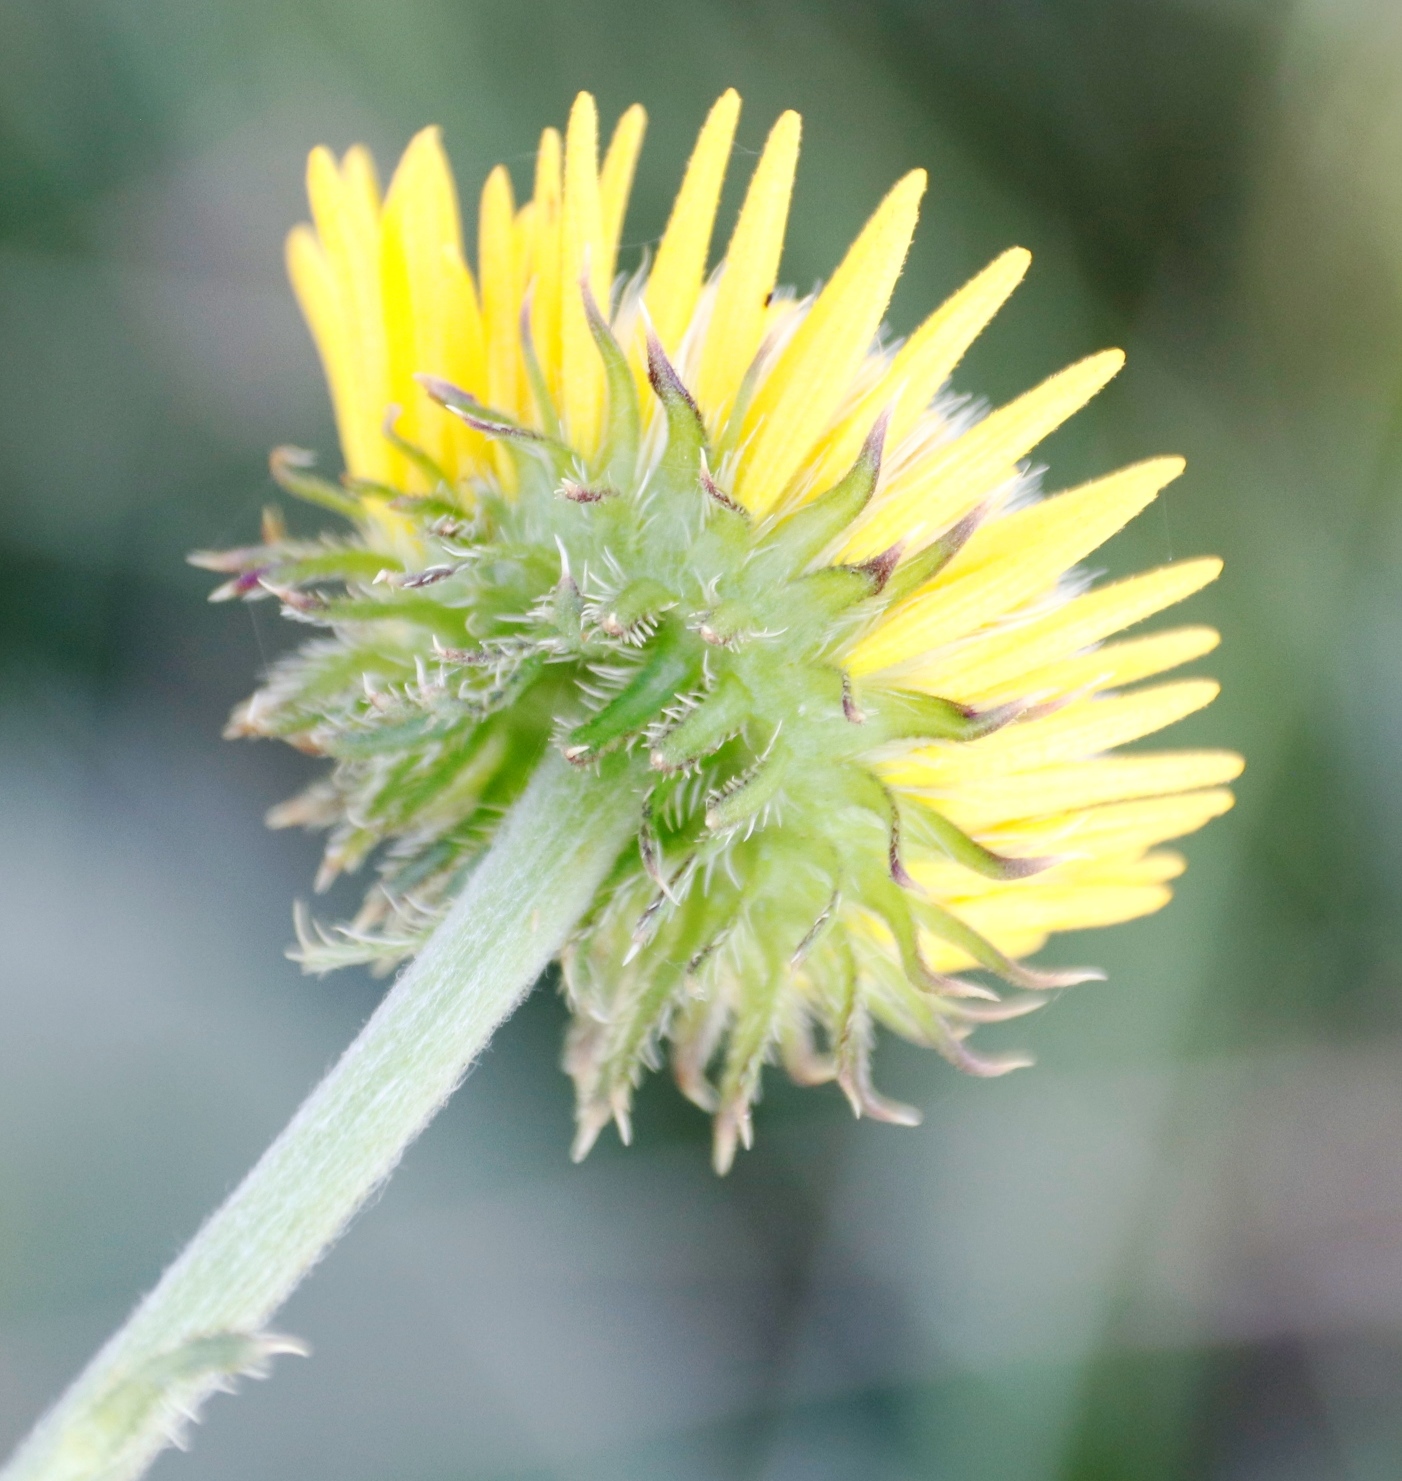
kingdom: Plantae
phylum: Tracheophyta
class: Magnoliopsida
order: Asterales
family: Asteraceae
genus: Berkheya
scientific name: Berkheya setifera
